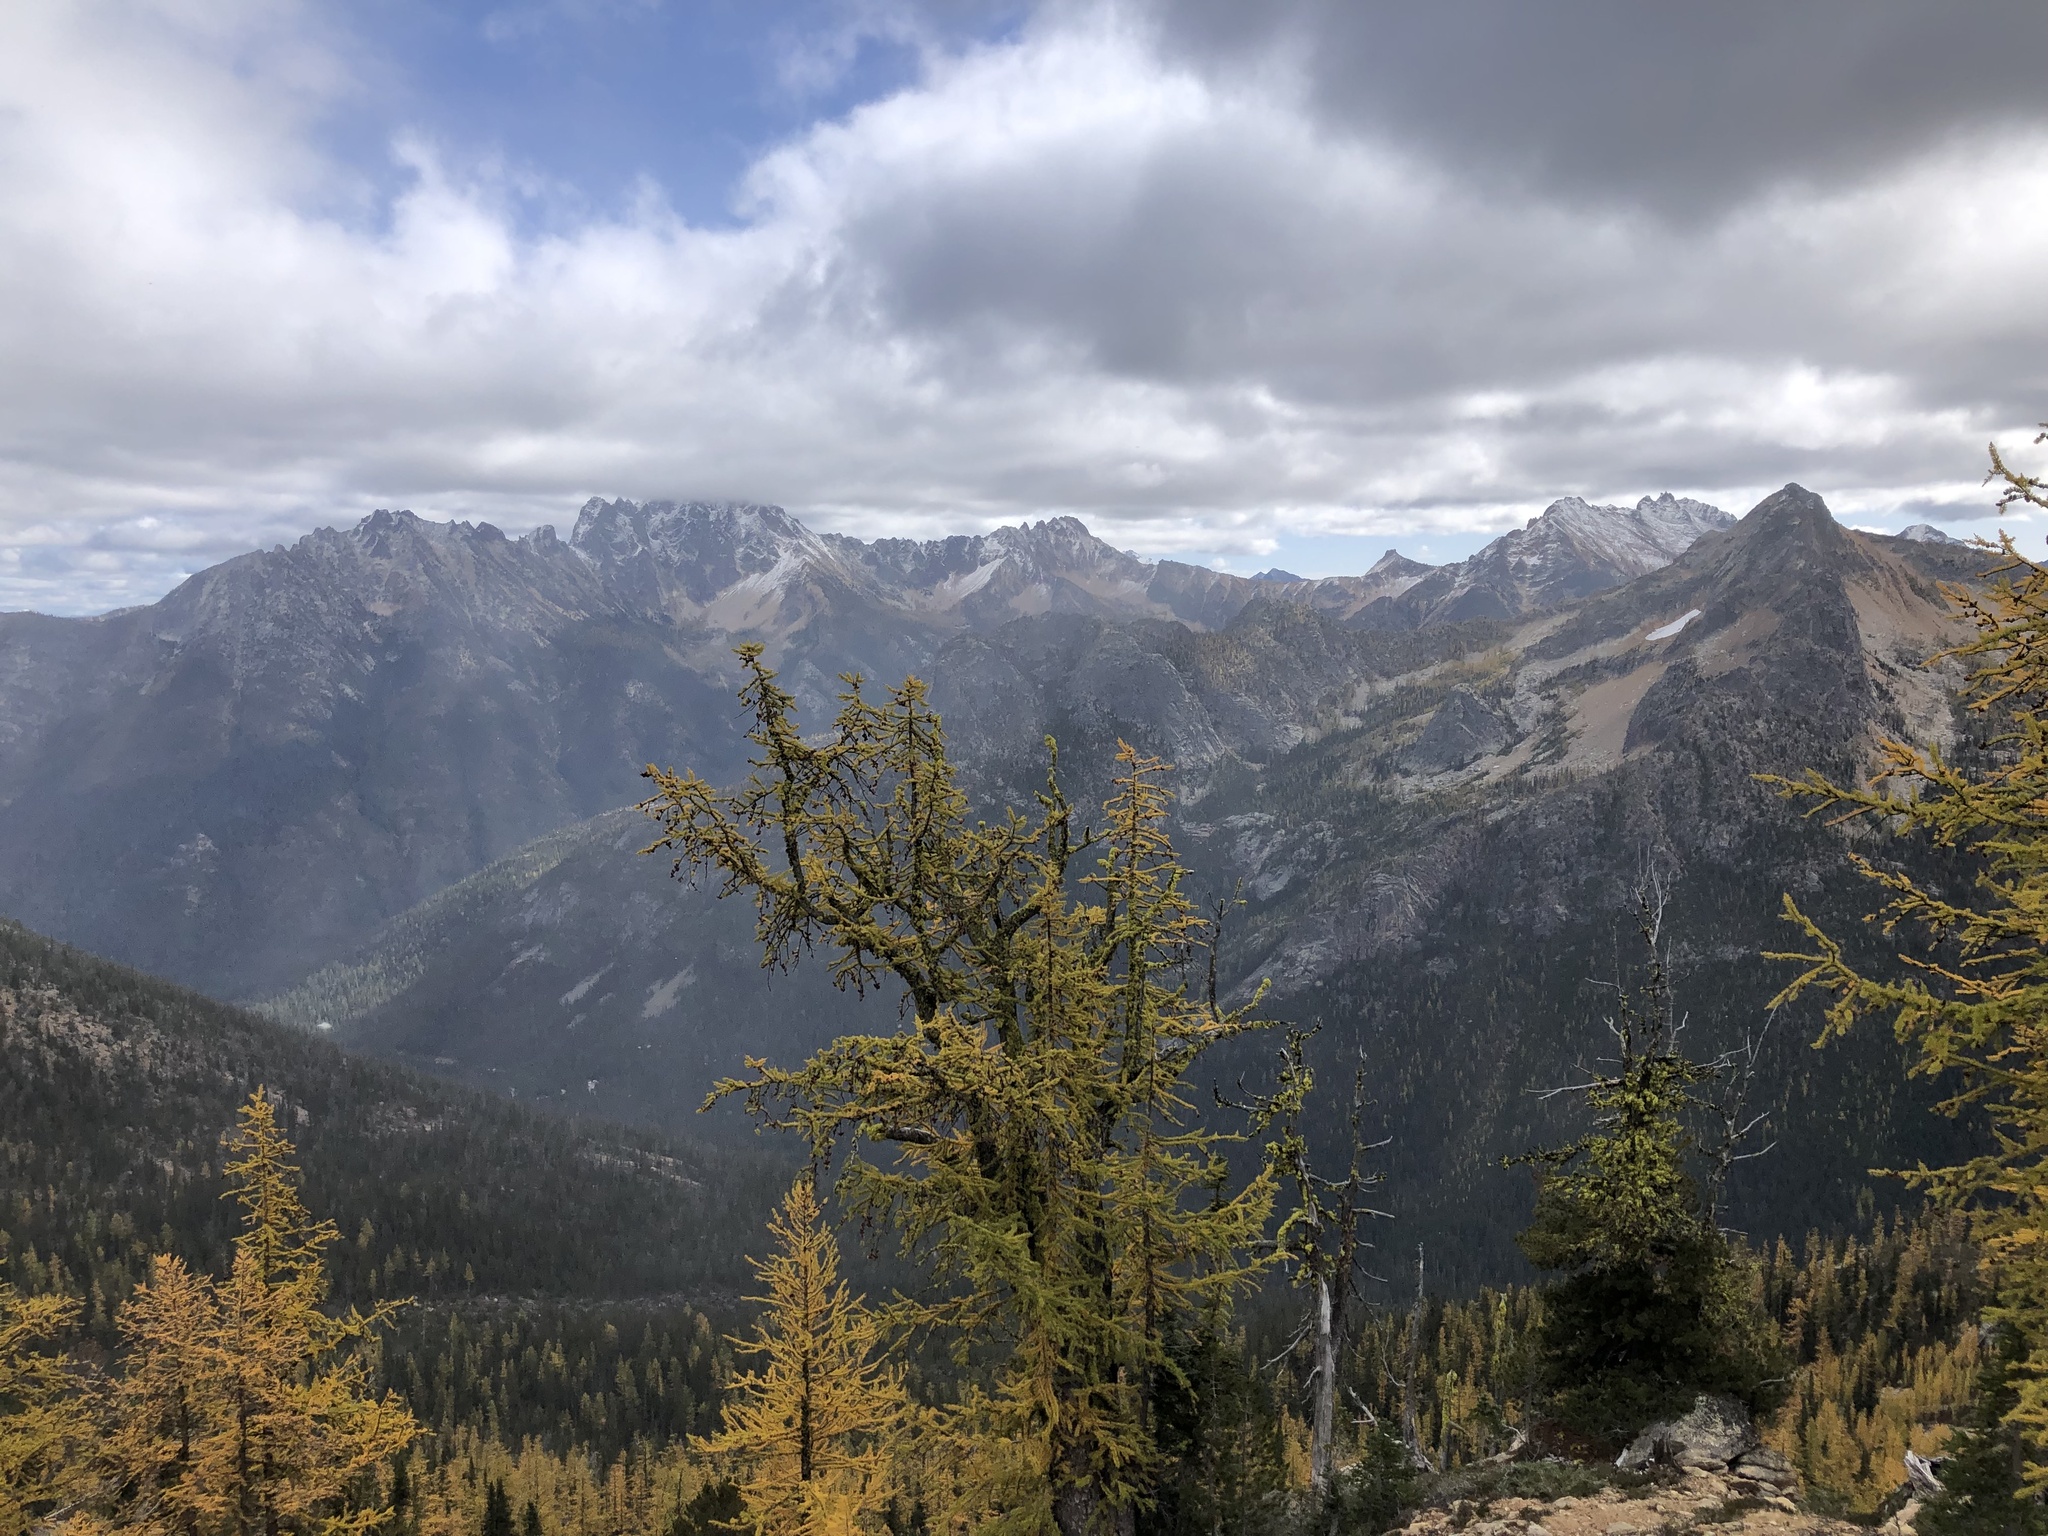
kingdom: Plantae
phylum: Tracheophyta
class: Pinopsida
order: Pinales
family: Pinaceae
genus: Larix
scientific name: Larix lyallii
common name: Alpine larch
